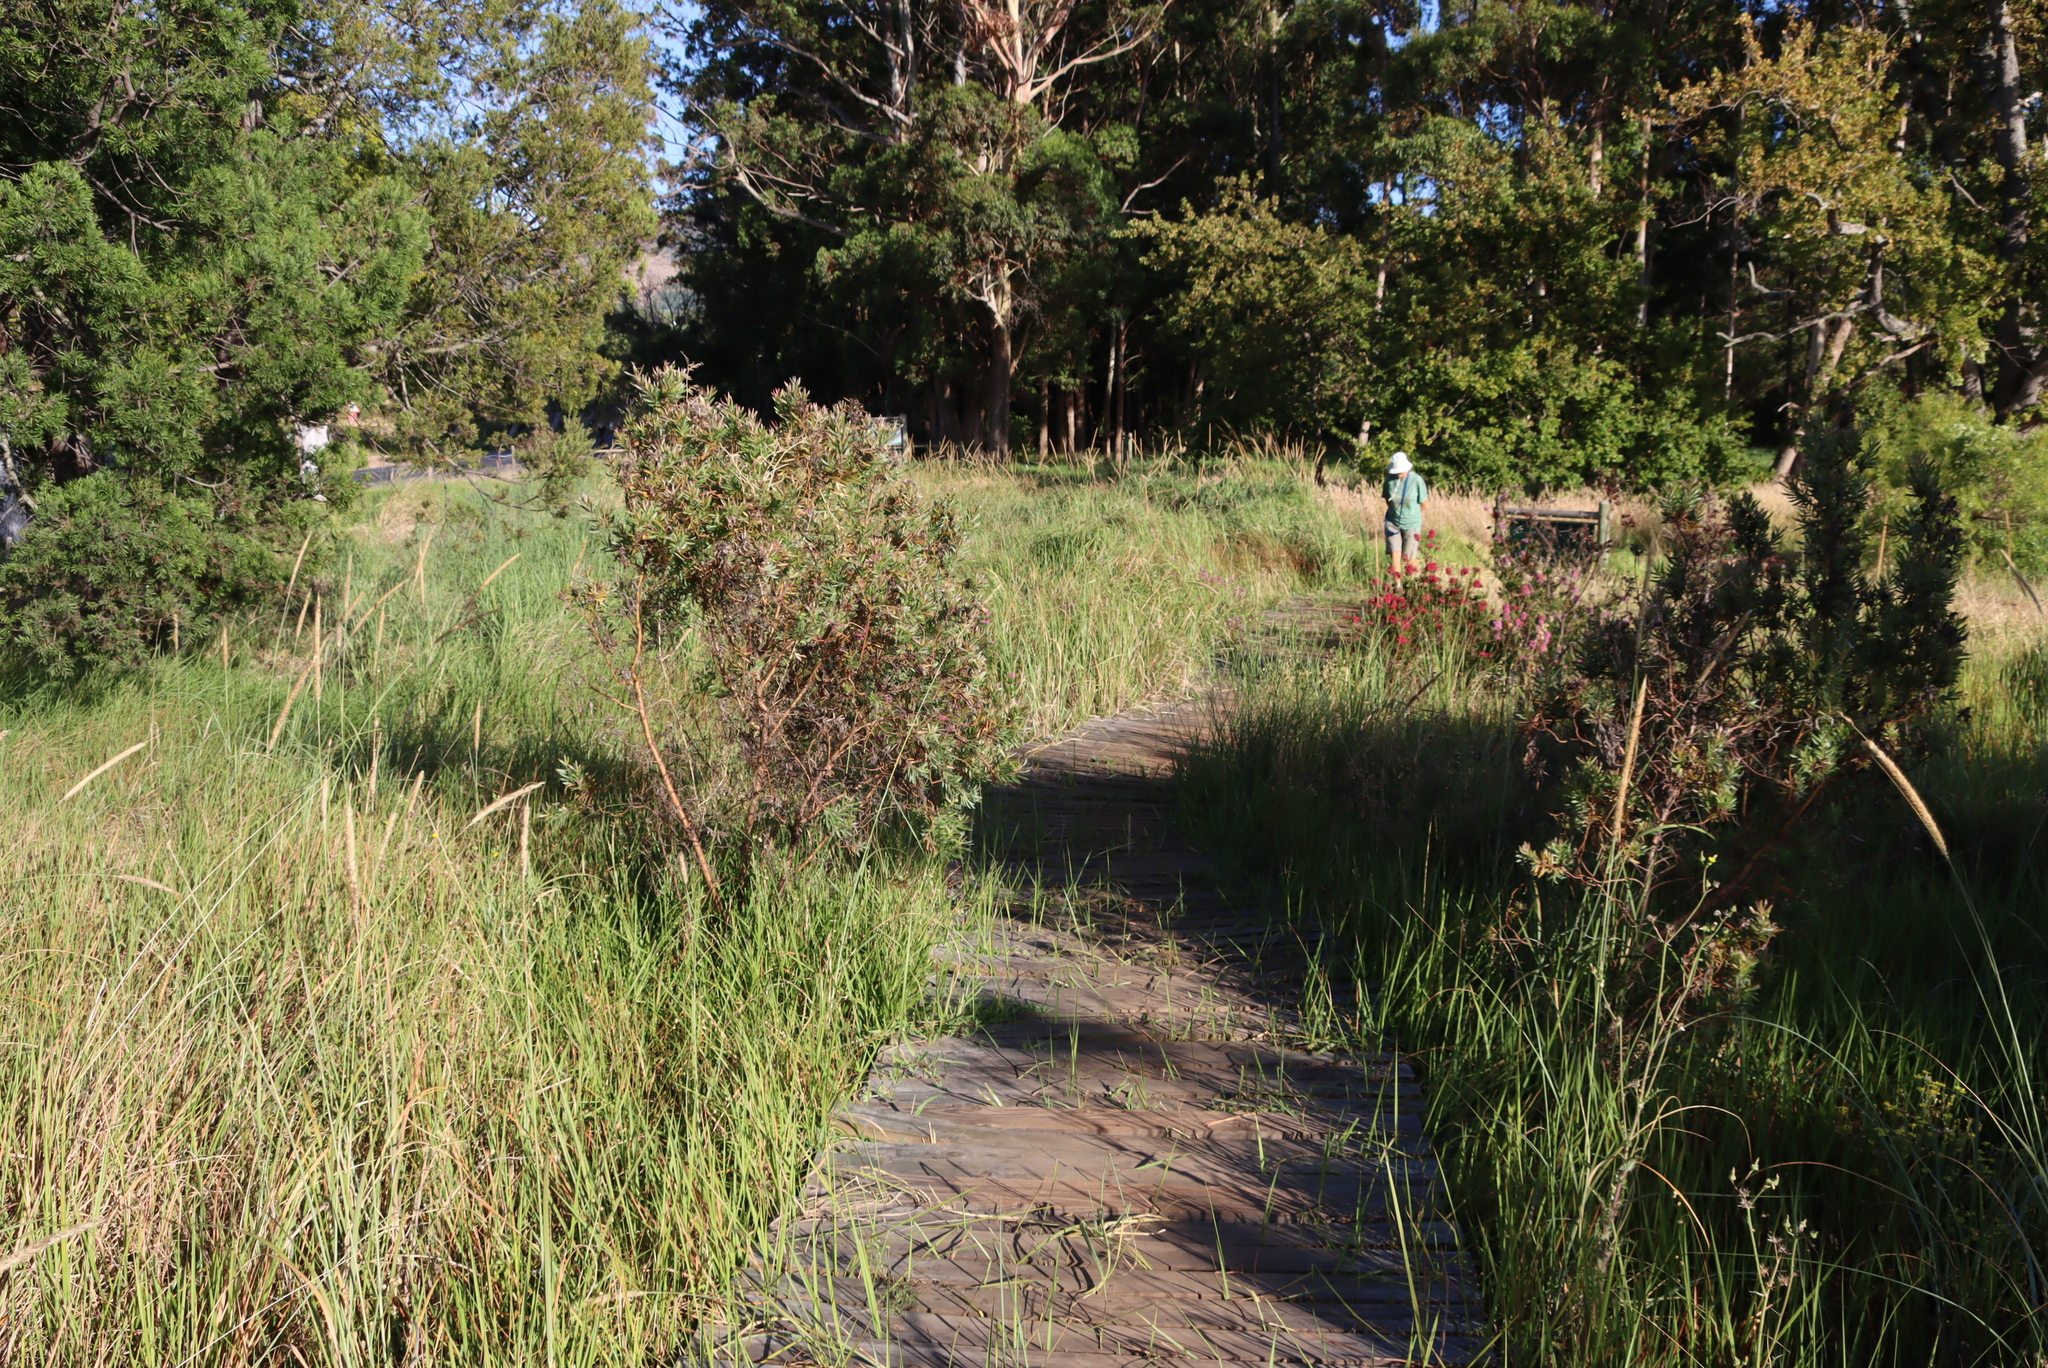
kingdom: Plantae
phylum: Tracheophyta
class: Magnoliopsida
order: Proteales
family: Proteaceae
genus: Leucadendron
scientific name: Leucadendron macowanii
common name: Acacia-leaf conebush
